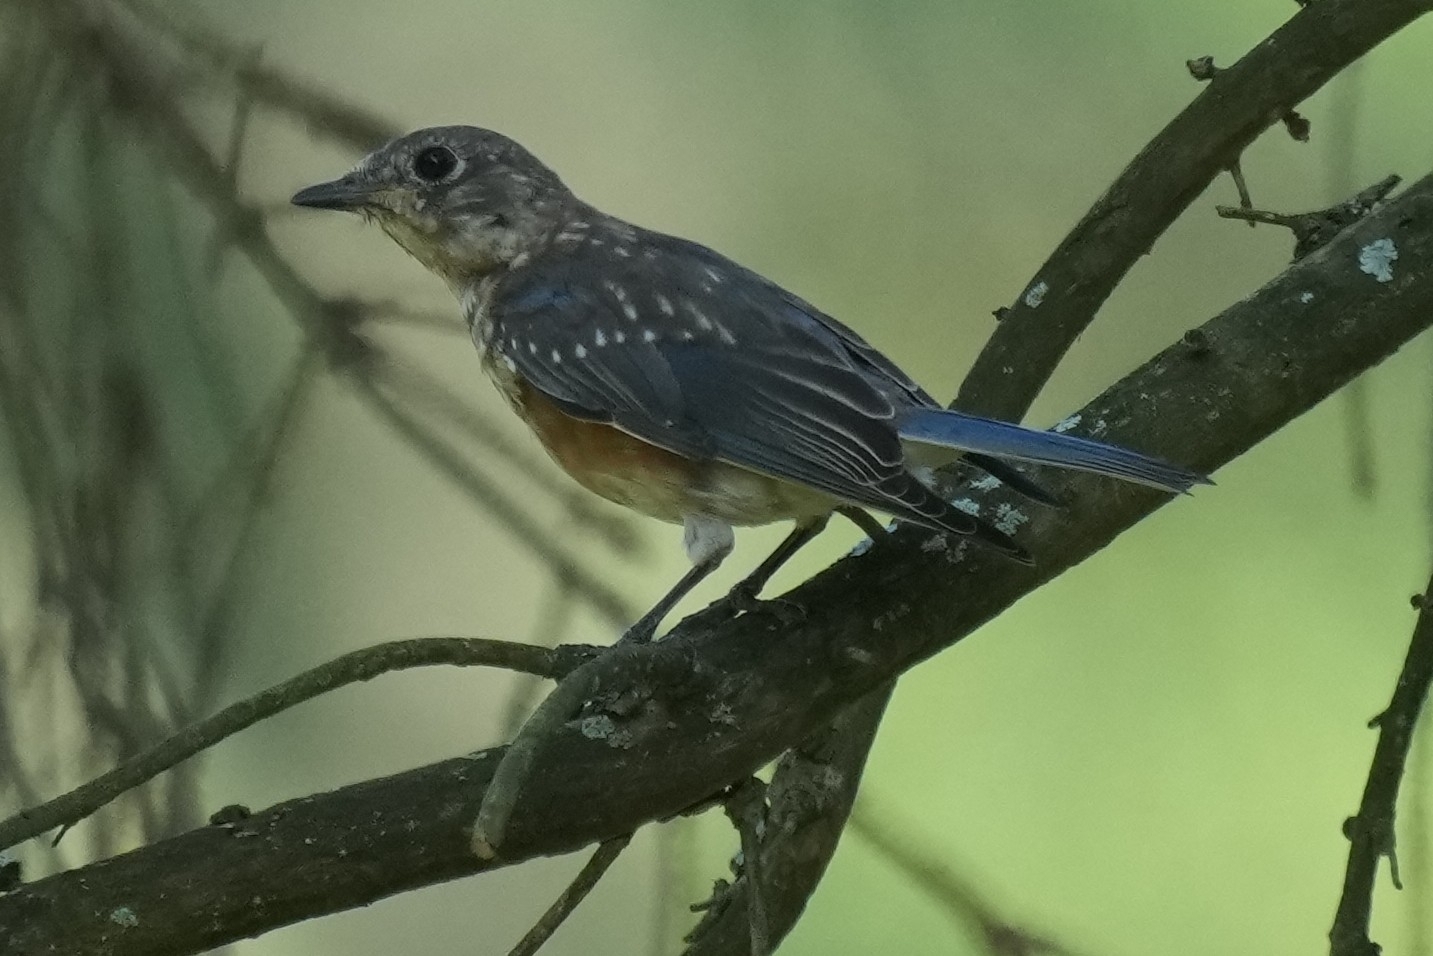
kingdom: Animalia
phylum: Chordata
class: Aves
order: Passeriformes
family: Turdidae
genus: Sialia
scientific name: Sialia sialis
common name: Eastern bluebird
